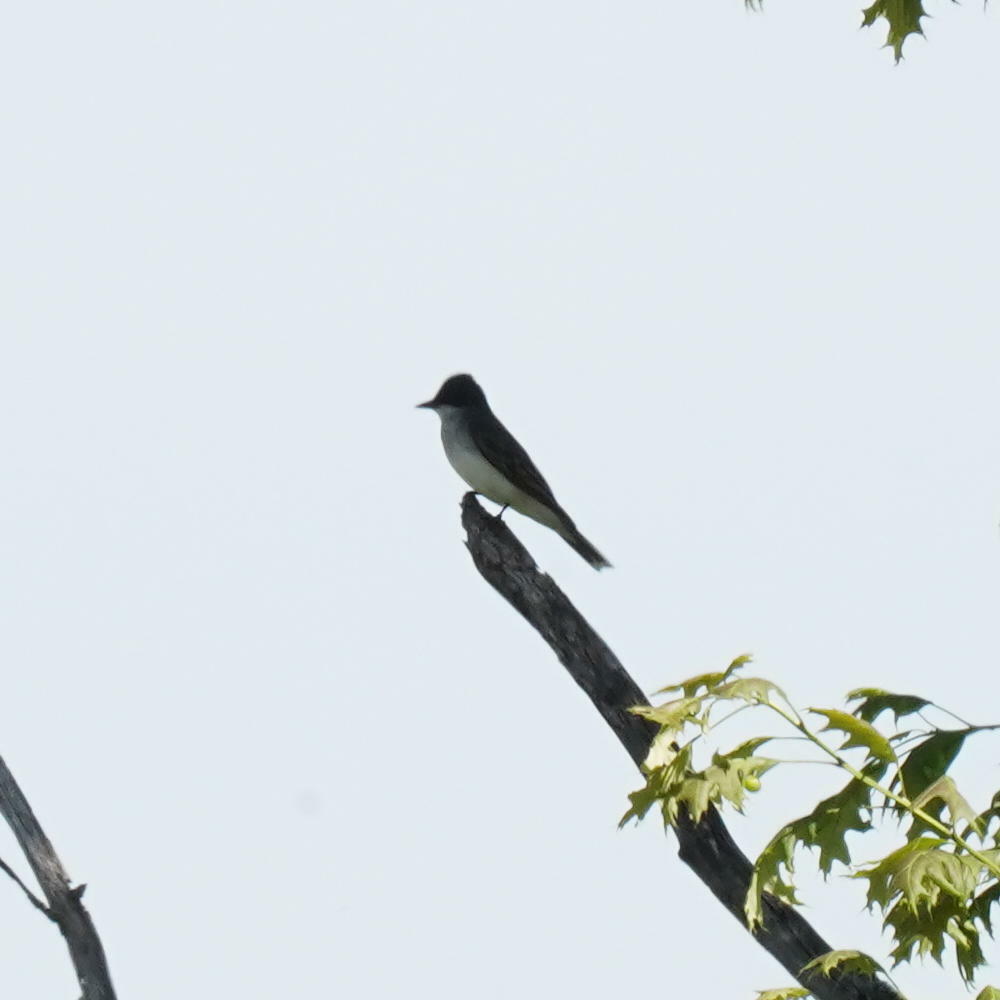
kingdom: Animalia
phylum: Chordata
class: Aves
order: Passeriformes
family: Tyrannidae
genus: Tyrannus
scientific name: Tyrannus tyrannus
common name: Eastern kingbird
